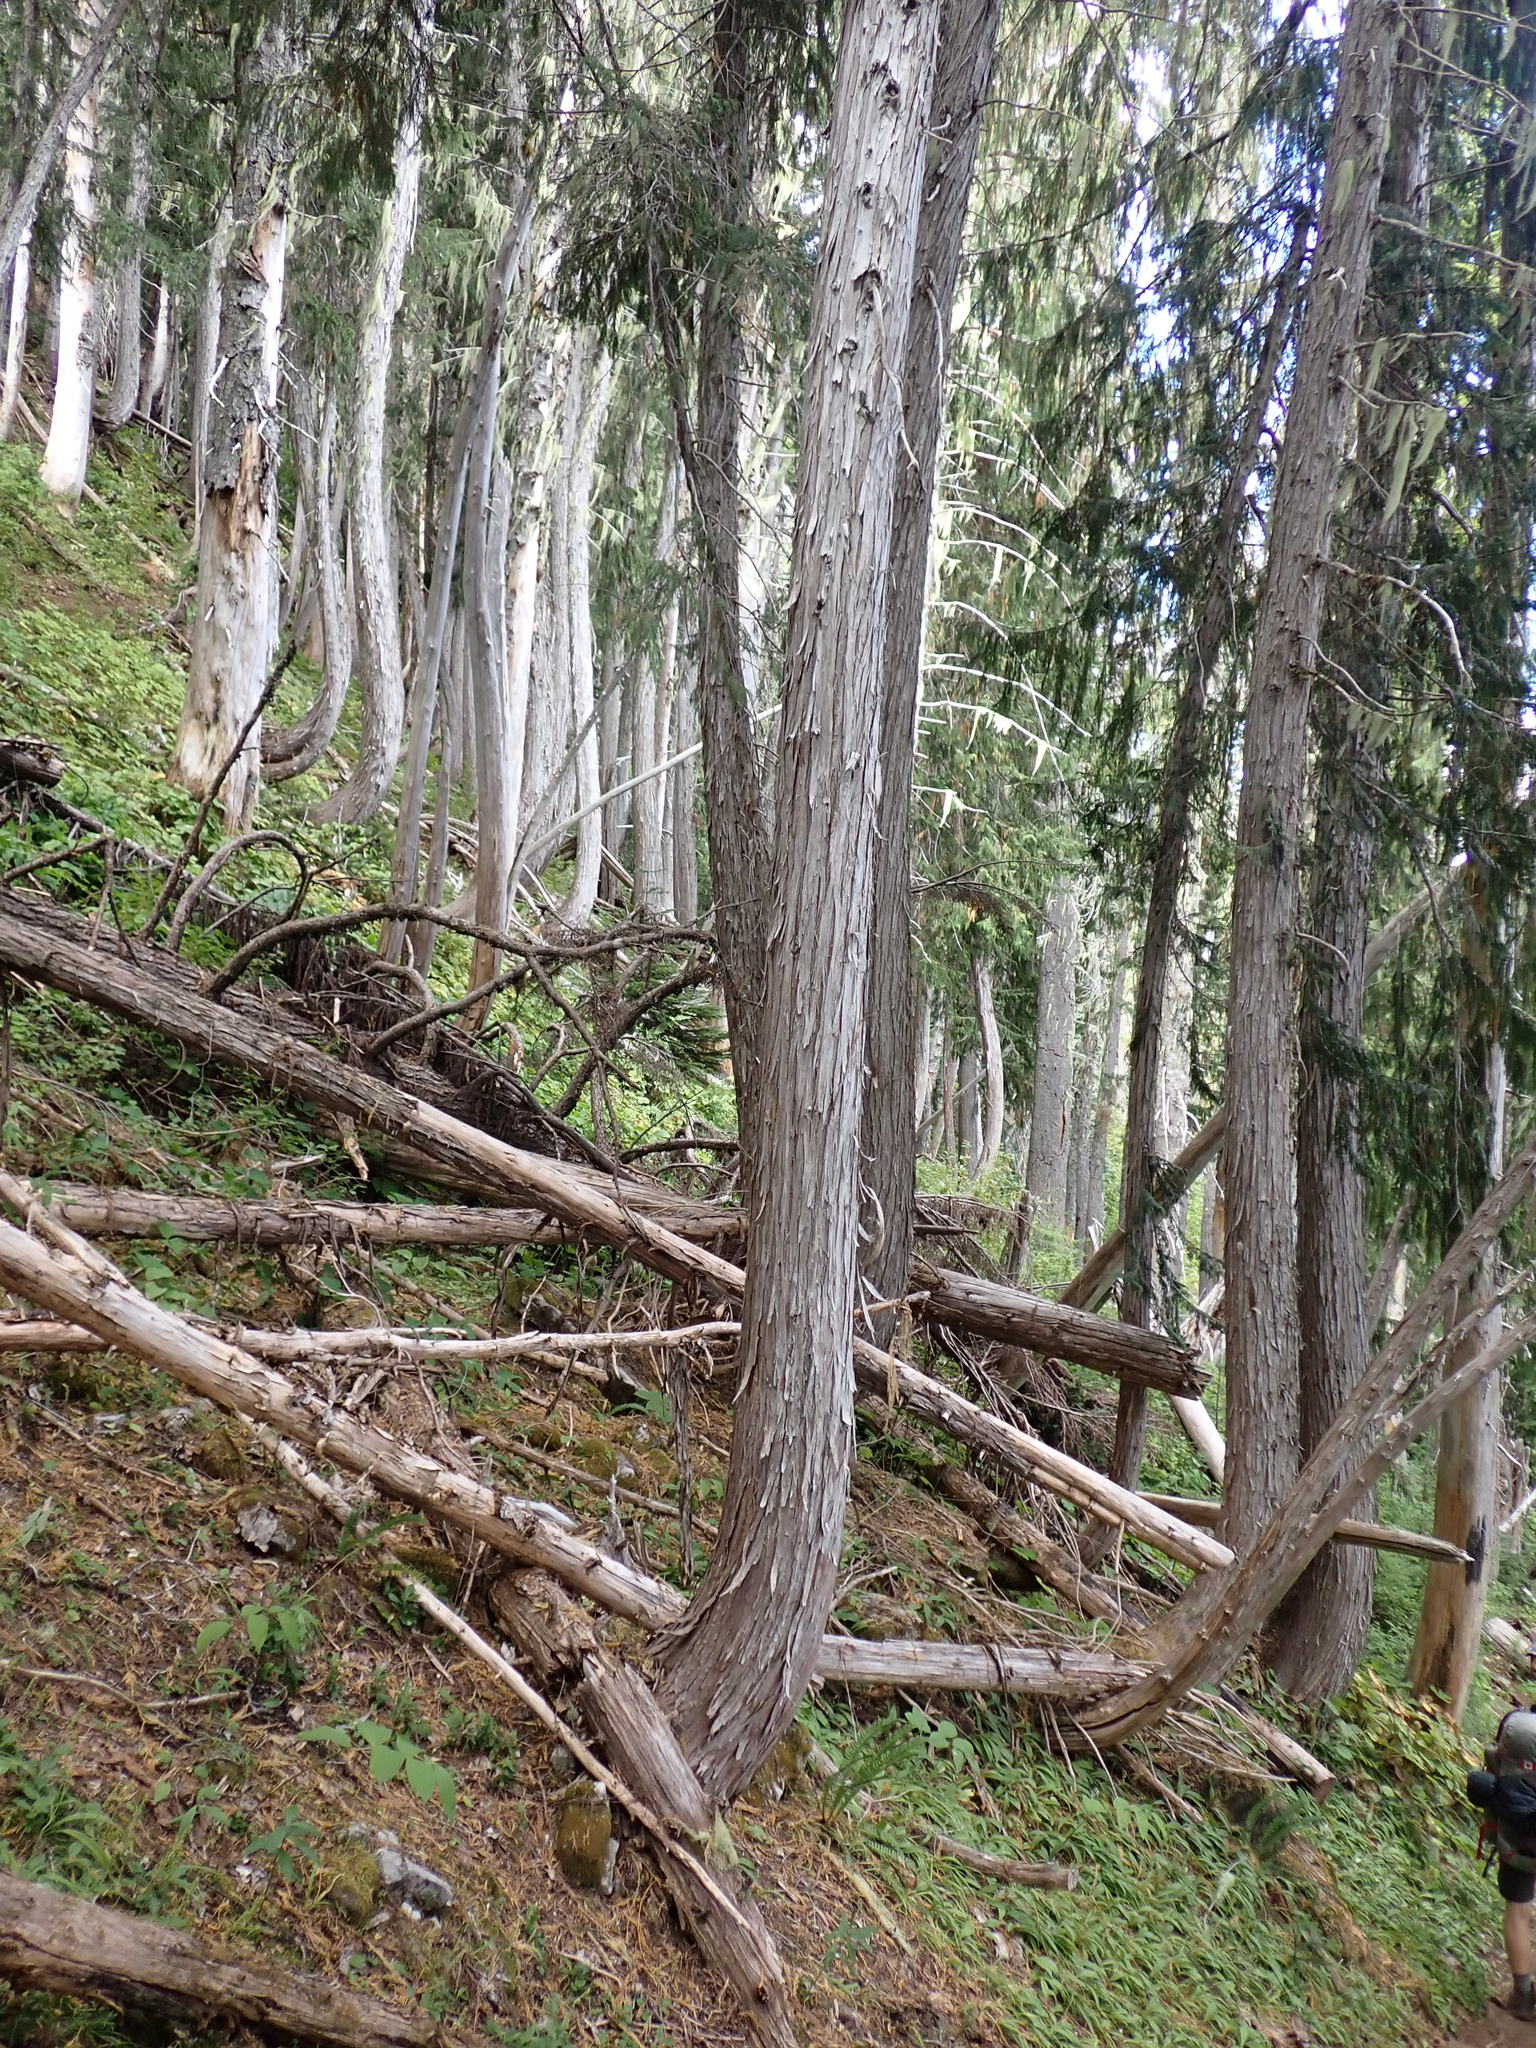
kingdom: Plantae
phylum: Tracheophyta
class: Pinopsida
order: Pinales
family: Cupressaceae
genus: Xanthocyparis
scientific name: Xanthocyparis nootkatensis
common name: Nootka cypress
